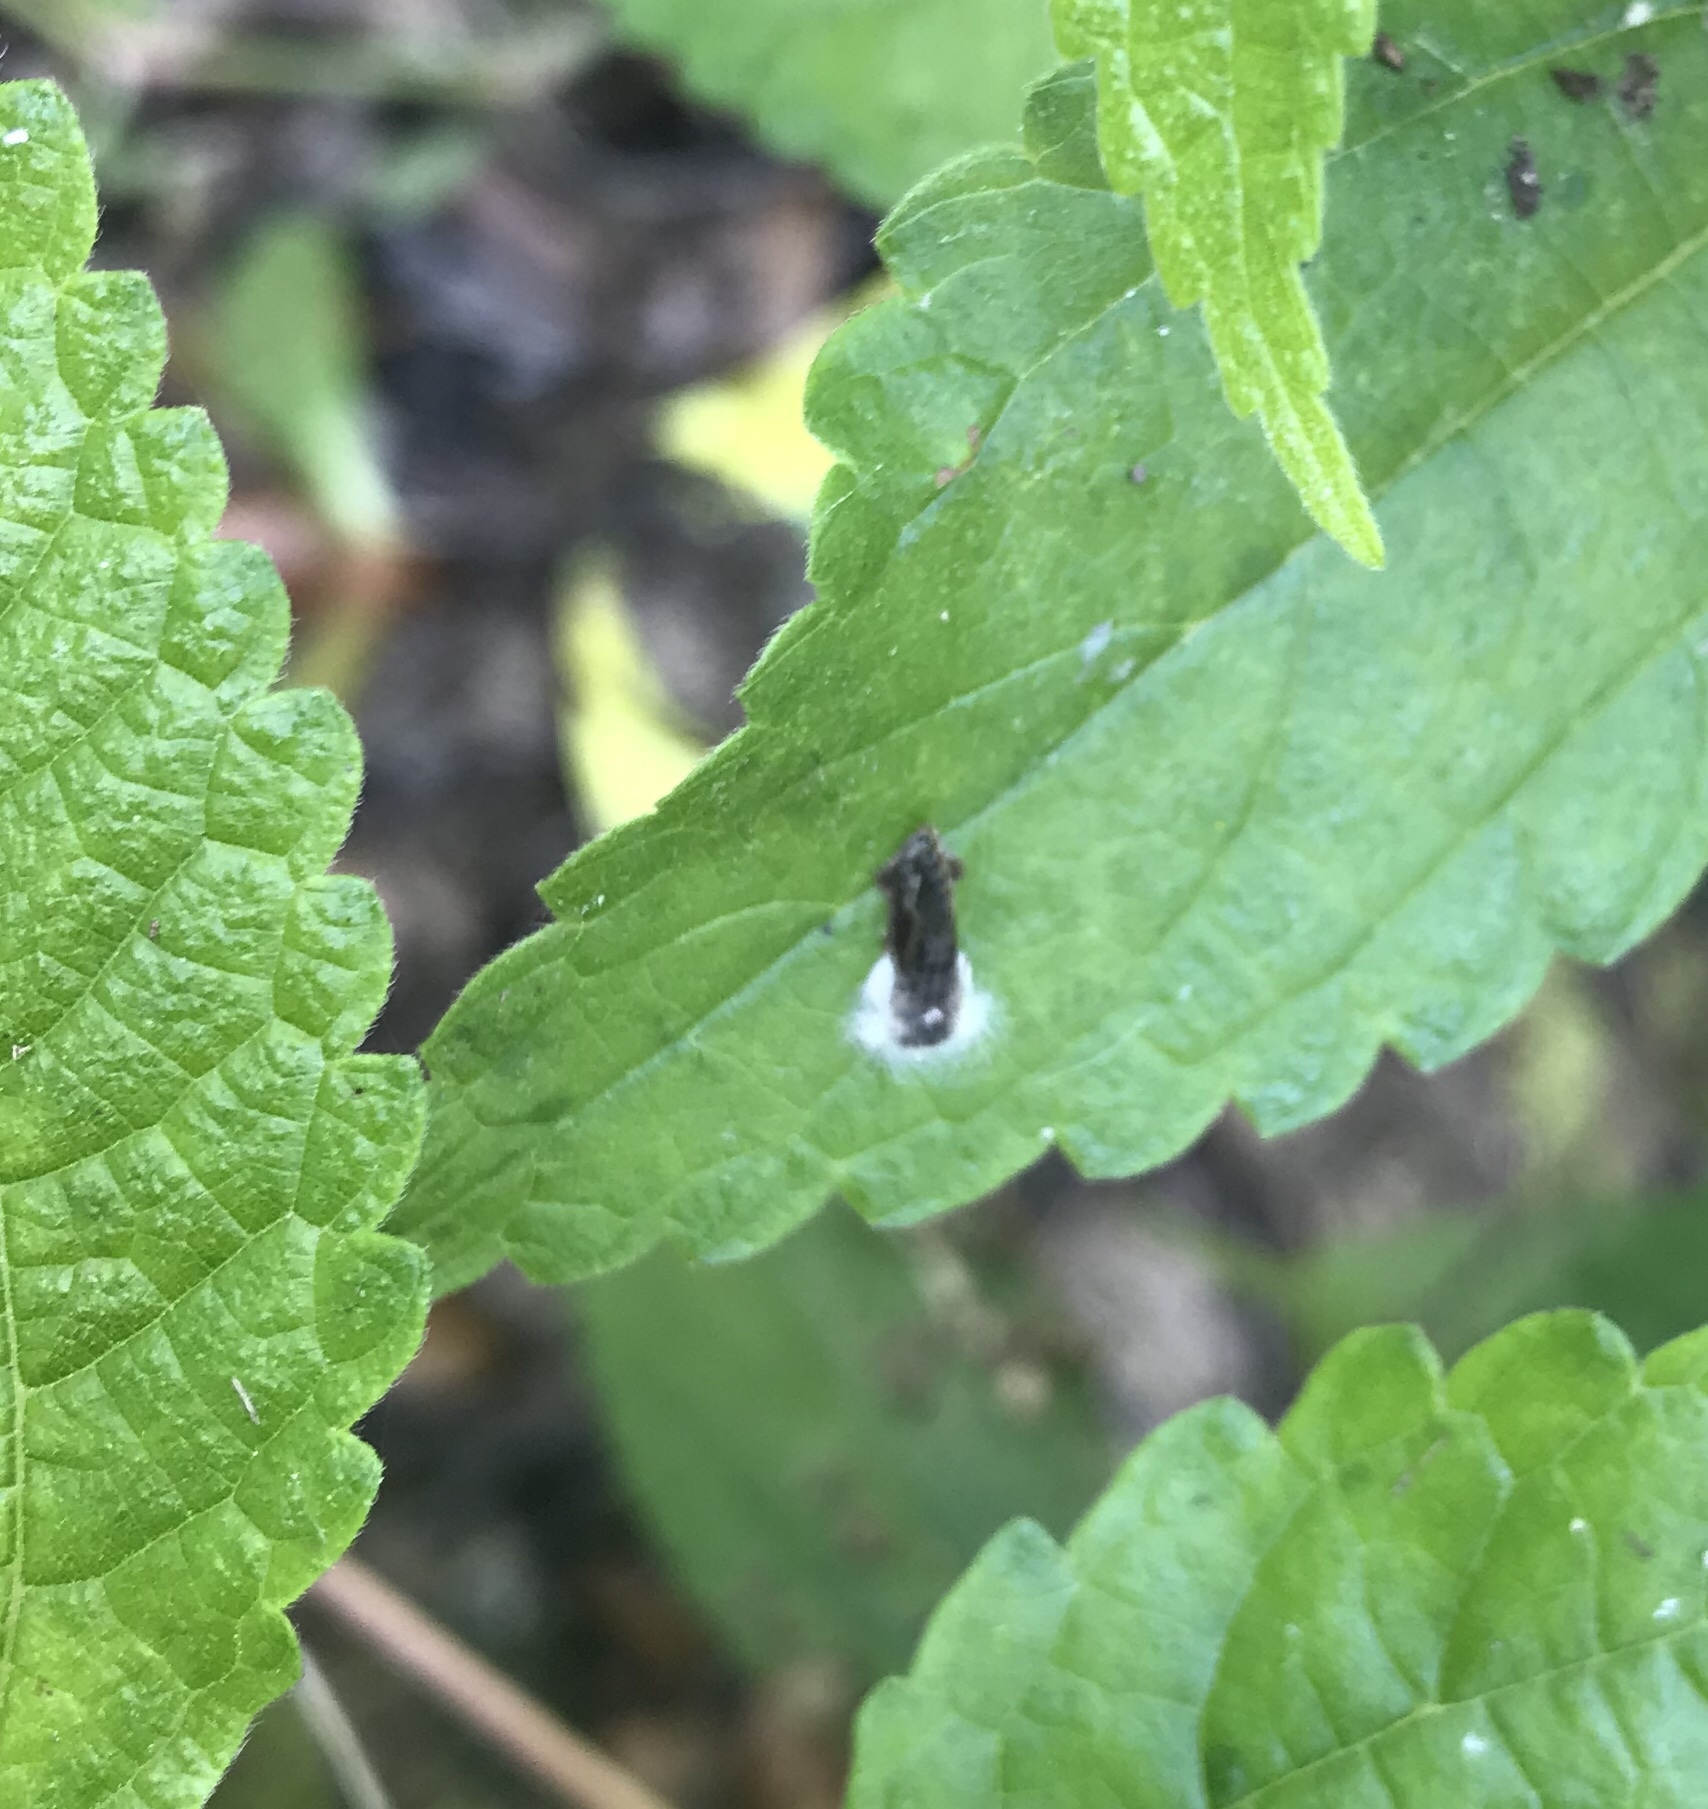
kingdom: Animalia
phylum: Arthropoda
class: Insecta
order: Lepidoptera
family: Tineidae
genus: Acrolophus
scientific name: Acrolophus mycetophagus
